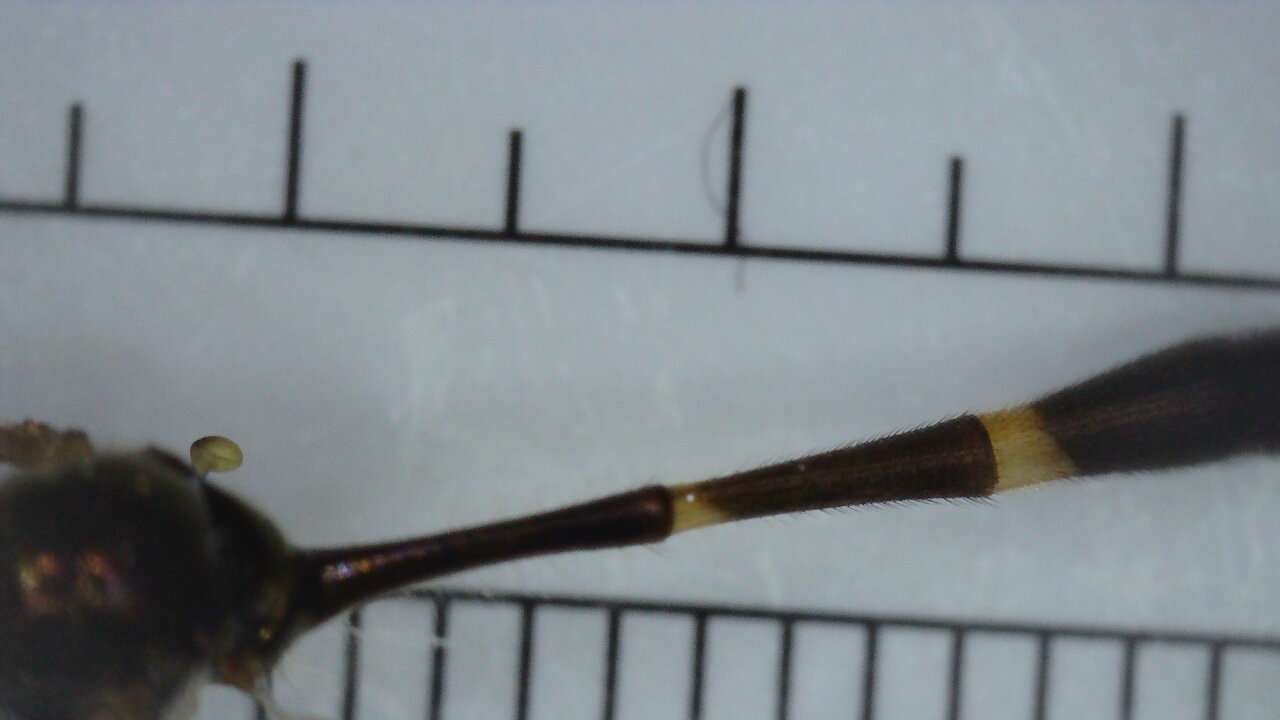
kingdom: Animalia
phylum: Arthropoda
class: Insecta
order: Diptera
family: Syrphidae
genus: Baccha
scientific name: Baccha elongata
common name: Common dainty
